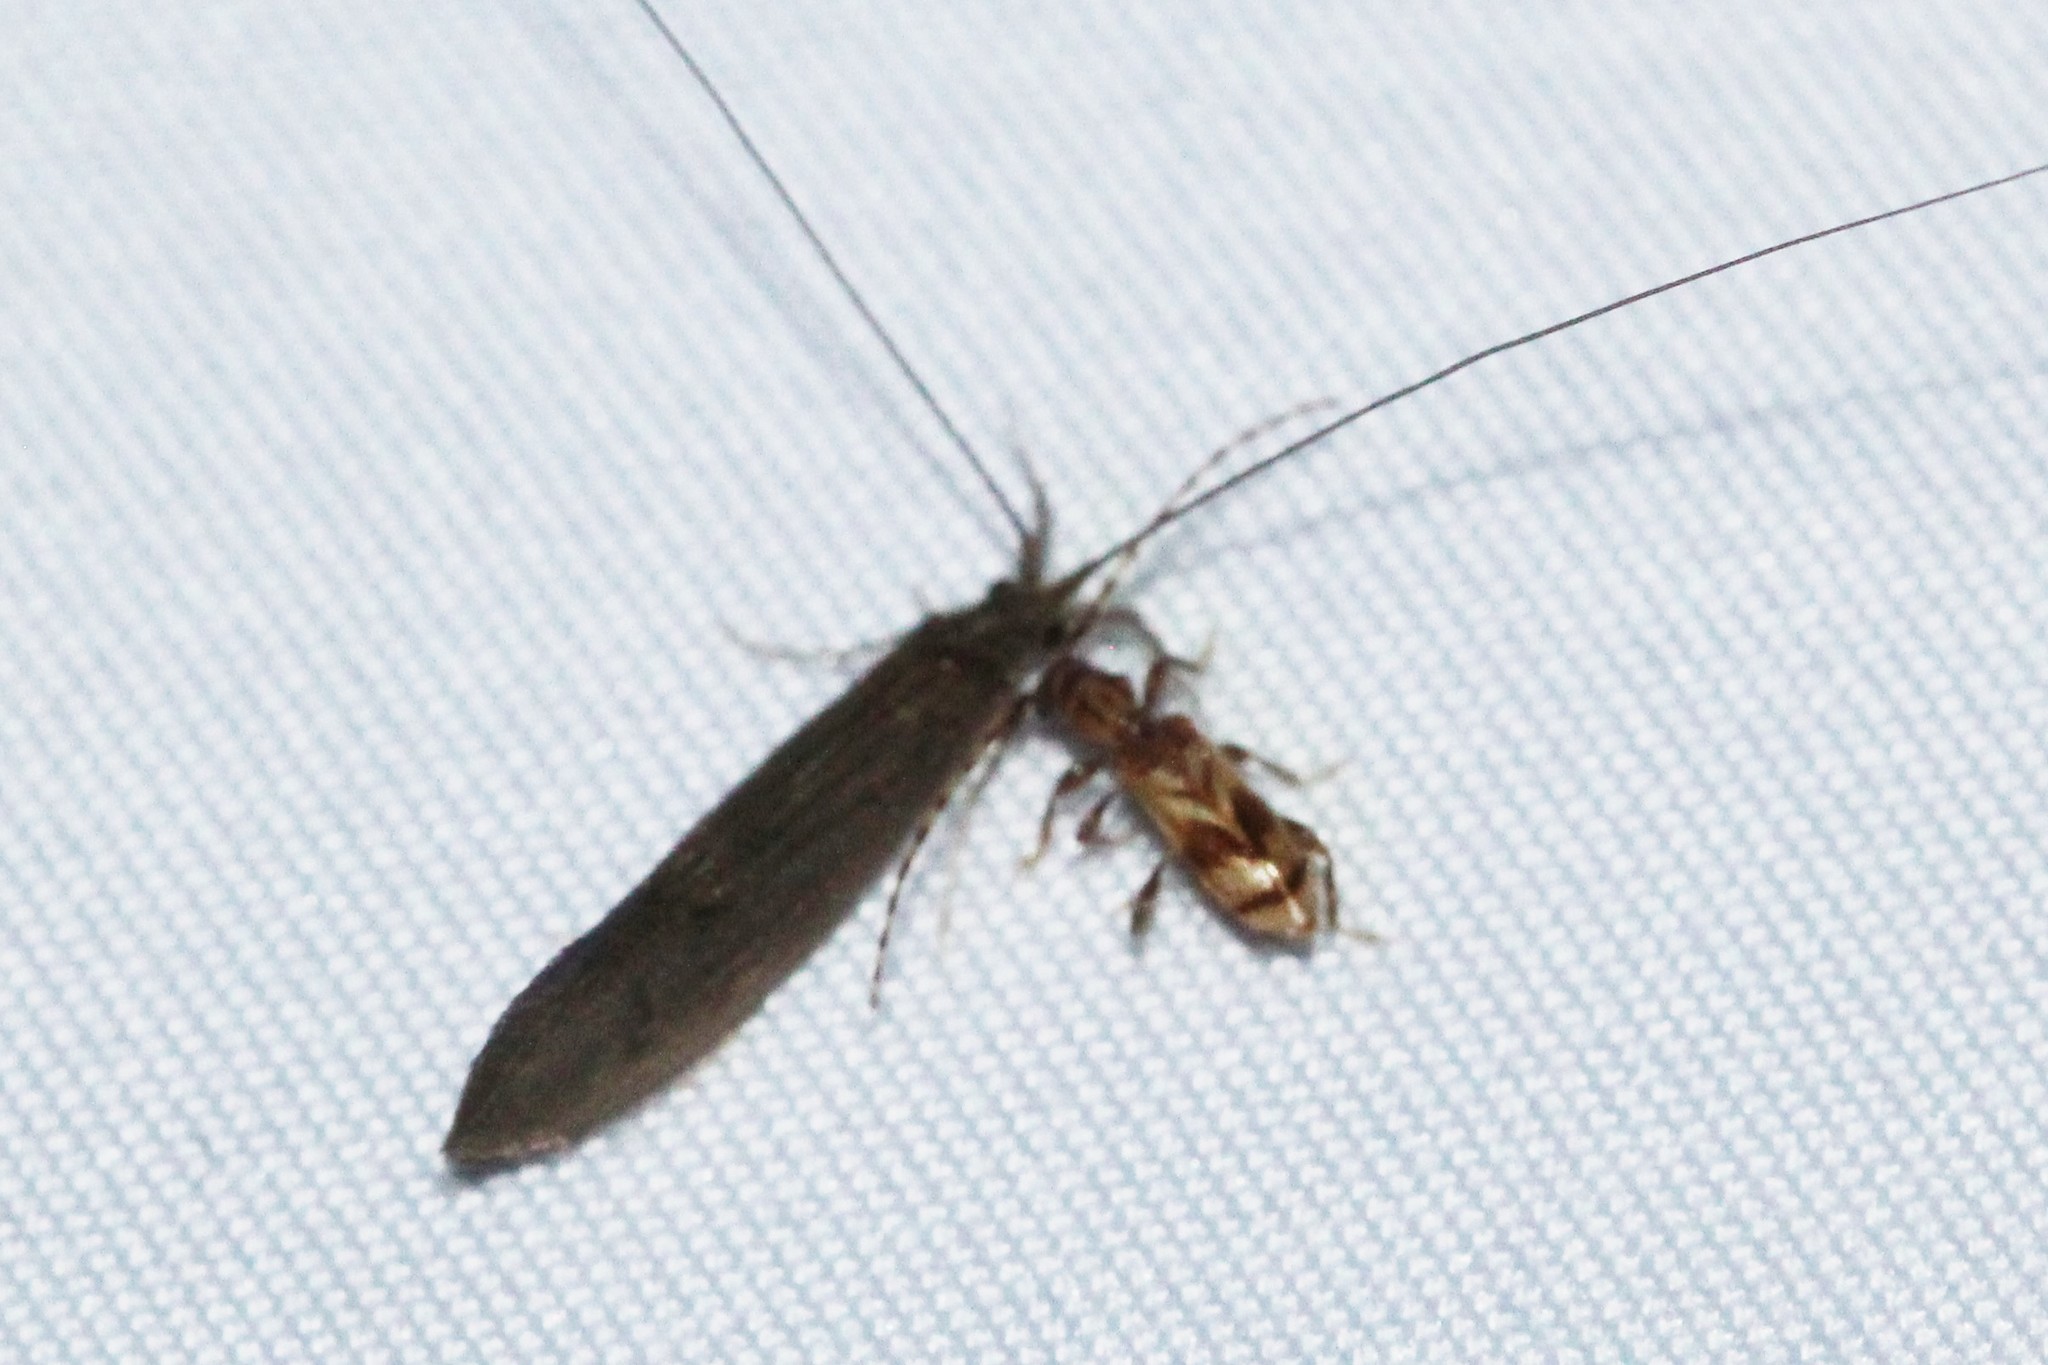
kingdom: Animalia
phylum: Arthropoda
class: Insecta
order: Coleoptera
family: Cerambycidae
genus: Obrium
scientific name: Obrium maculatum
